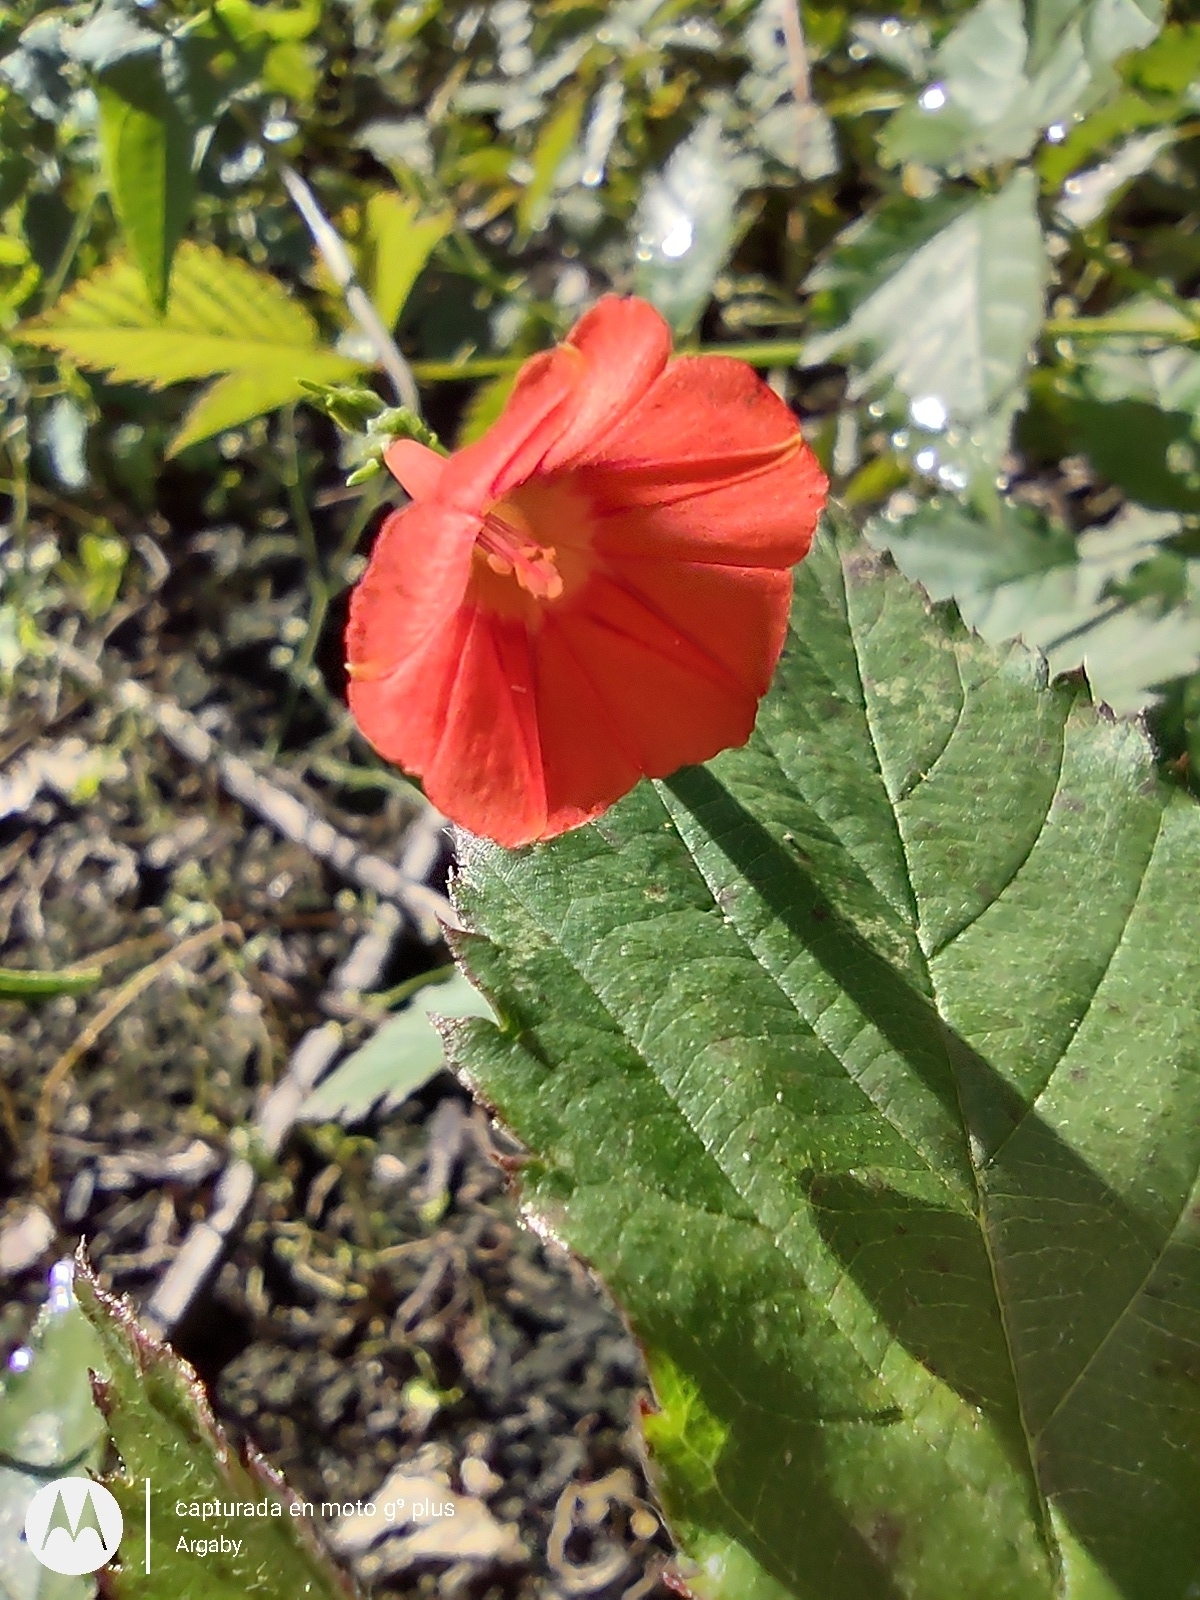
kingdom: Plantae
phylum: Tracheophyta
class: Magnoliopsida
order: Solanales
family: Convolvulaceae
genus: Ipomoea
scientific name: Ipomoea indivisa
